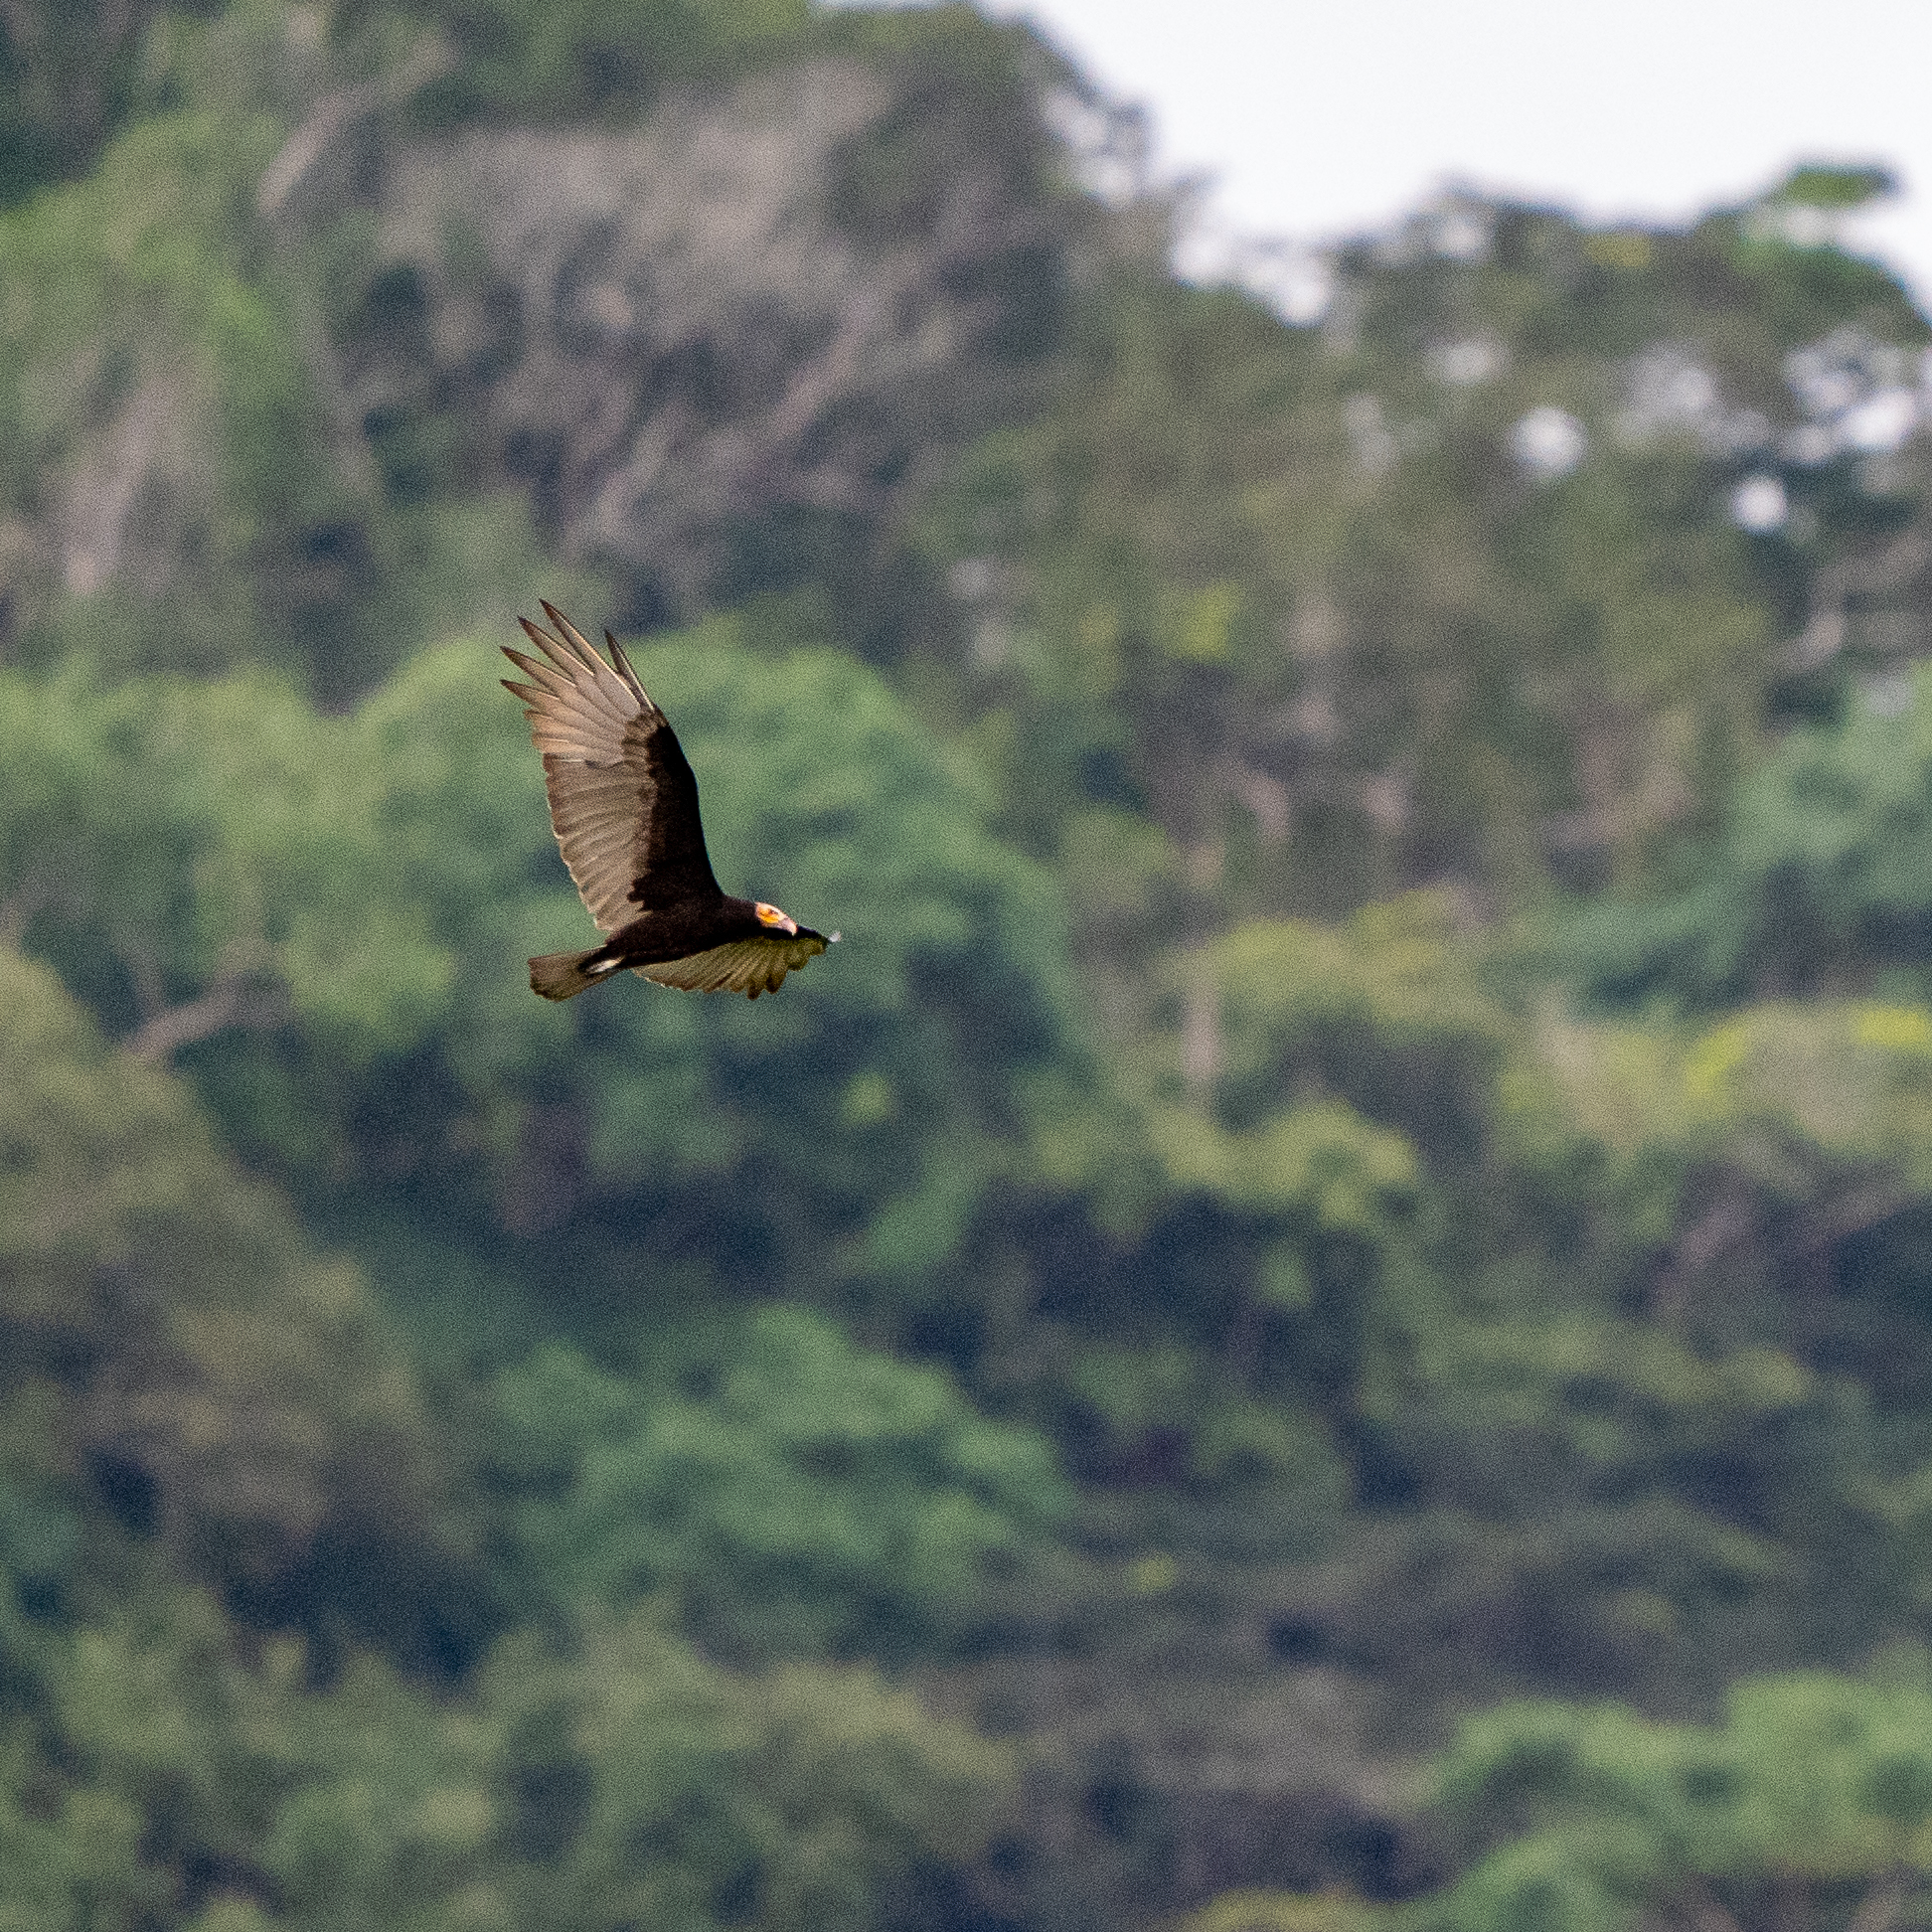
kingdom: Animalia
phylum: Chordata
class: Aves
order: Accipitriformes
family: Cathartidae
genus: Cathartes
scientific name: Cathartes burrovianus
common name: Lesser yellow-headed vulture
